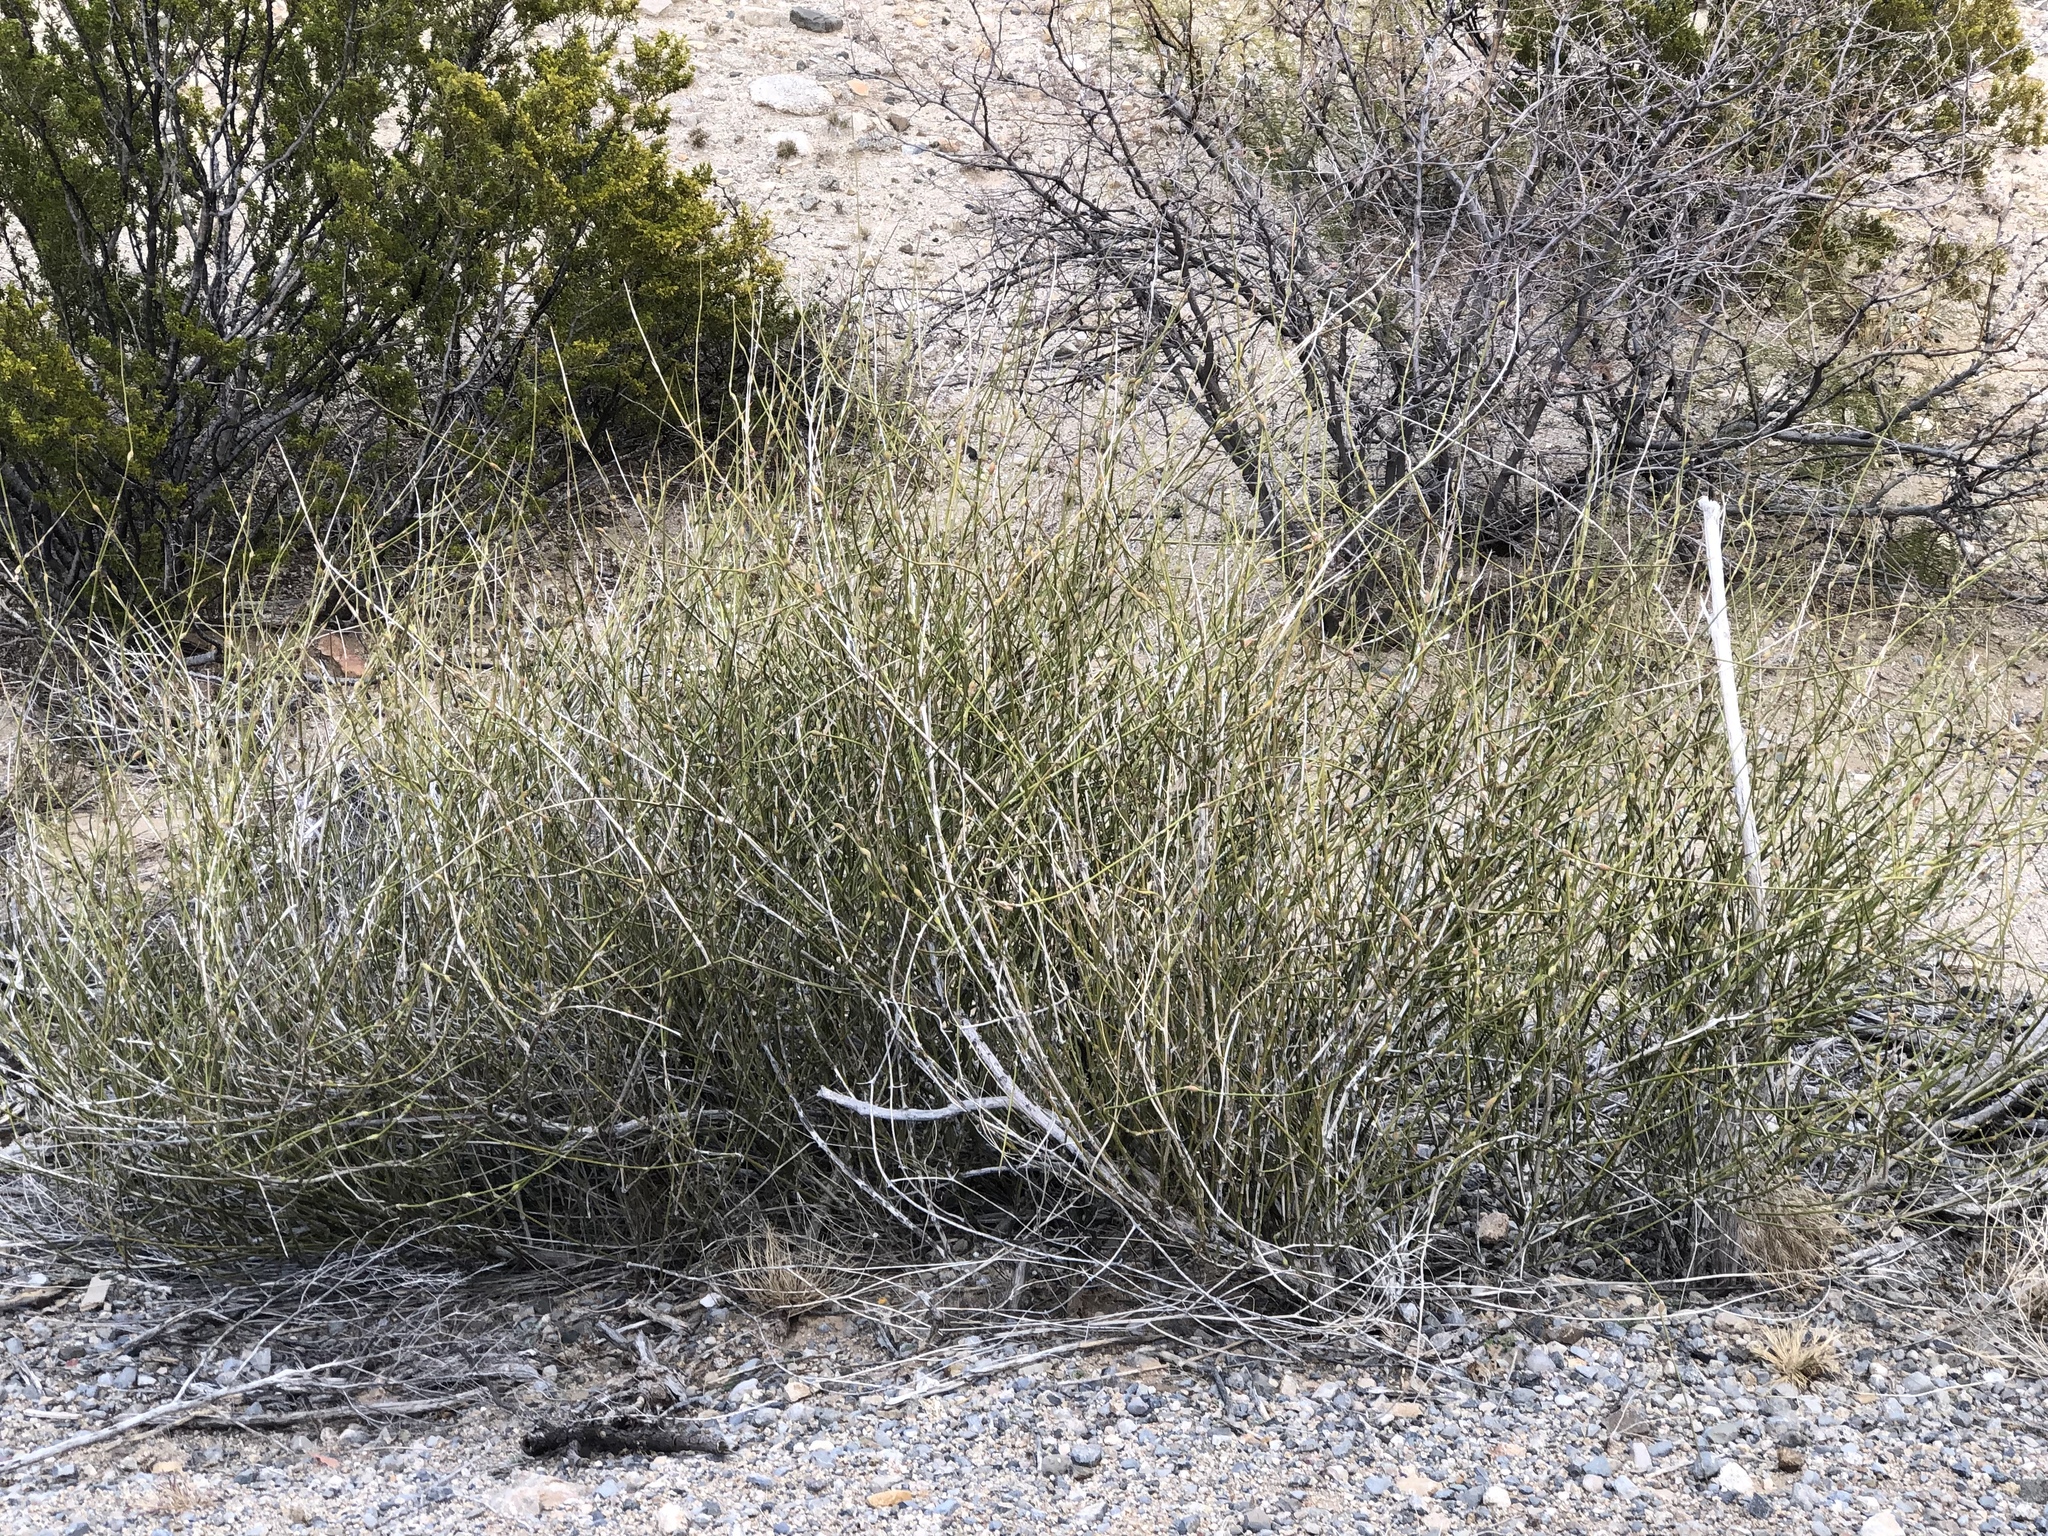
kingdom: Plantae
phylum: Tracheophyta
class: Gnetopsida
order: Ephedrales
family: Ephedraceae
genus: Ephedra
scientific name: Ephedra trifurca
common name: Mexican-tea
